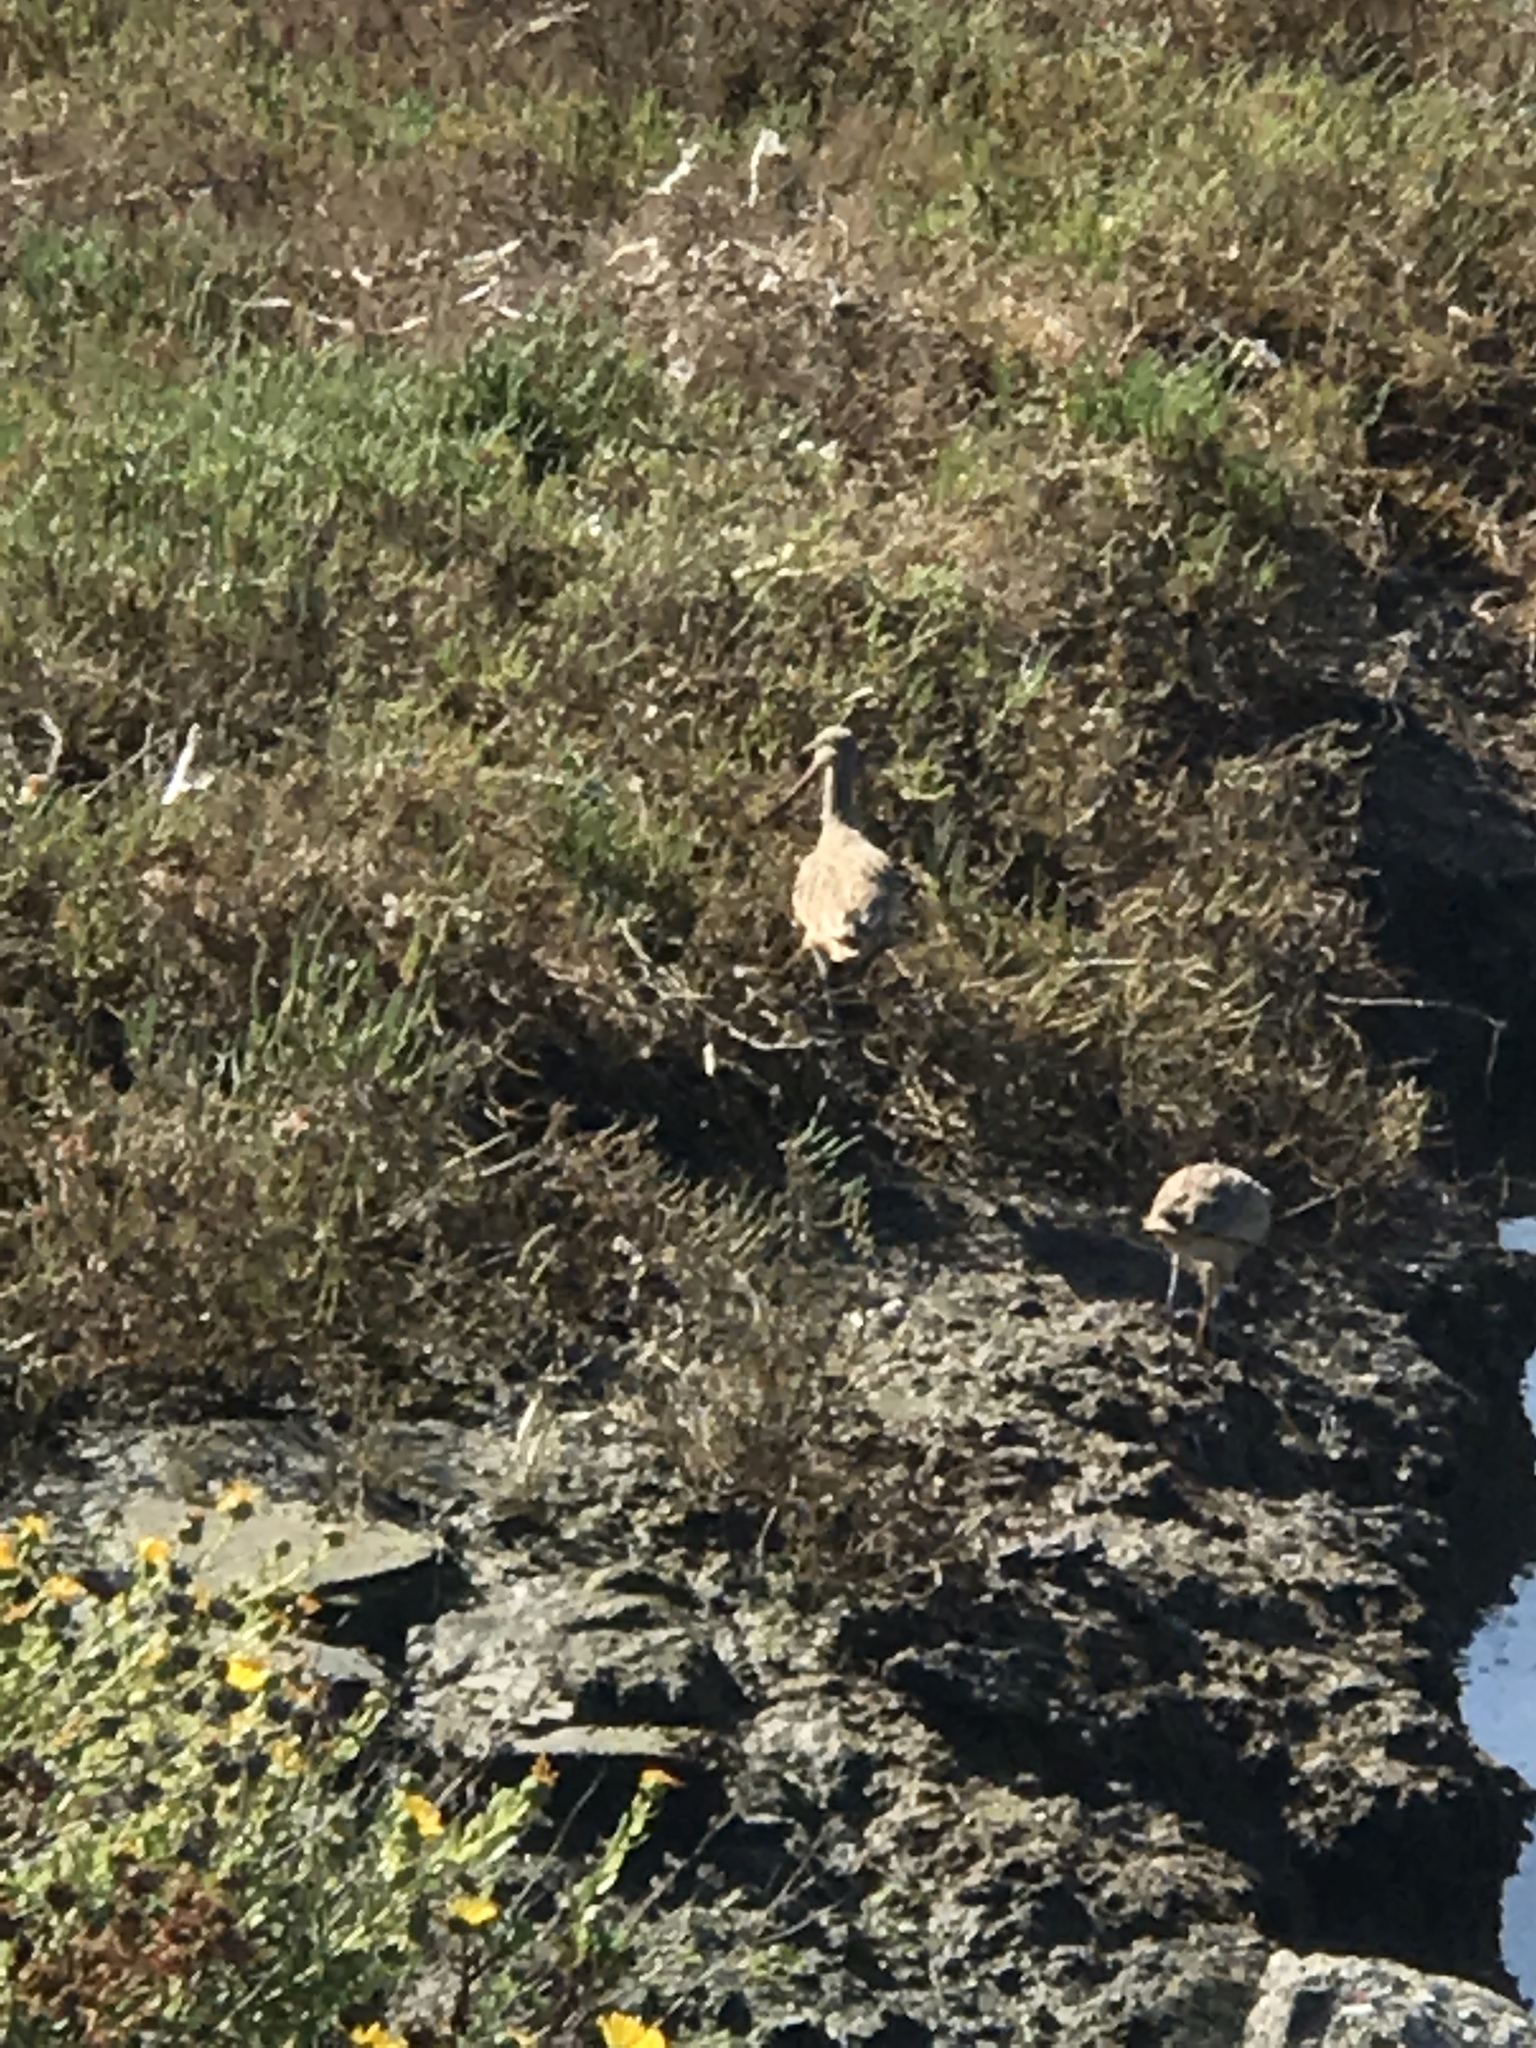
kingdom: Animalia
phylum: Chordata
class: Aves
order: Charadriiformes
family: Scolopacidae
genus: Limosa
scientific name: Limosa fedoa
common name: Marbled godwit
